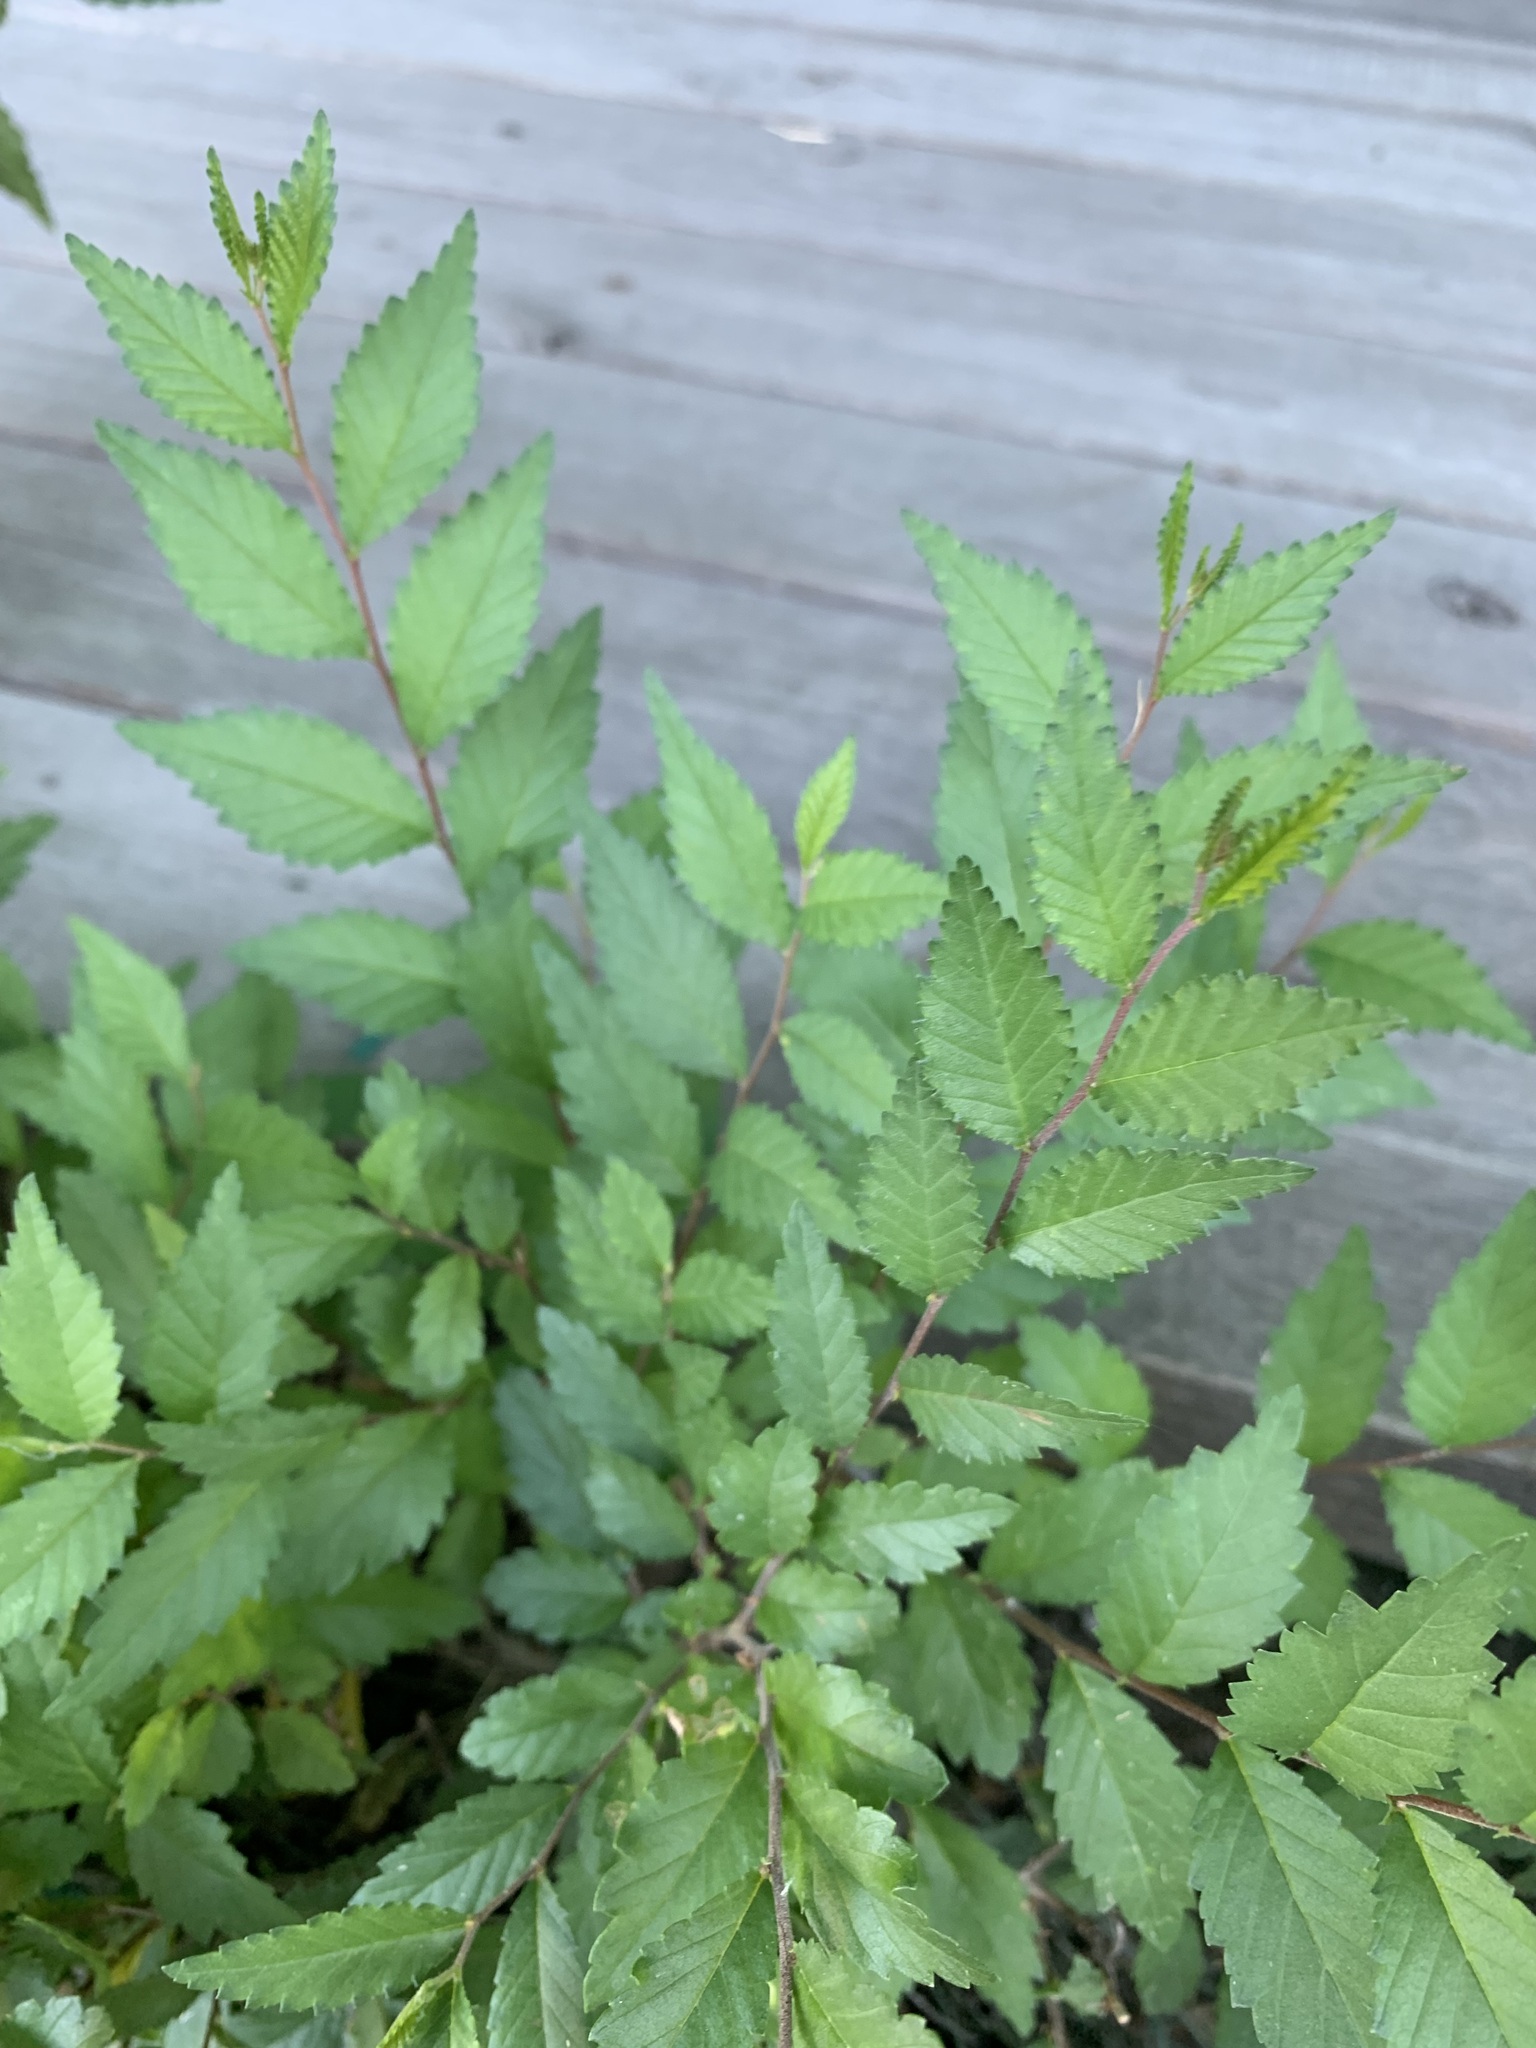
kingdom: Plantae
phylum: Tracheophyta
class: Magnoliopsida
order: Rosales
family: Ulmaceae
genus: Ulmus
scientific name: Ulmus pumila
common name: Siberian elm
